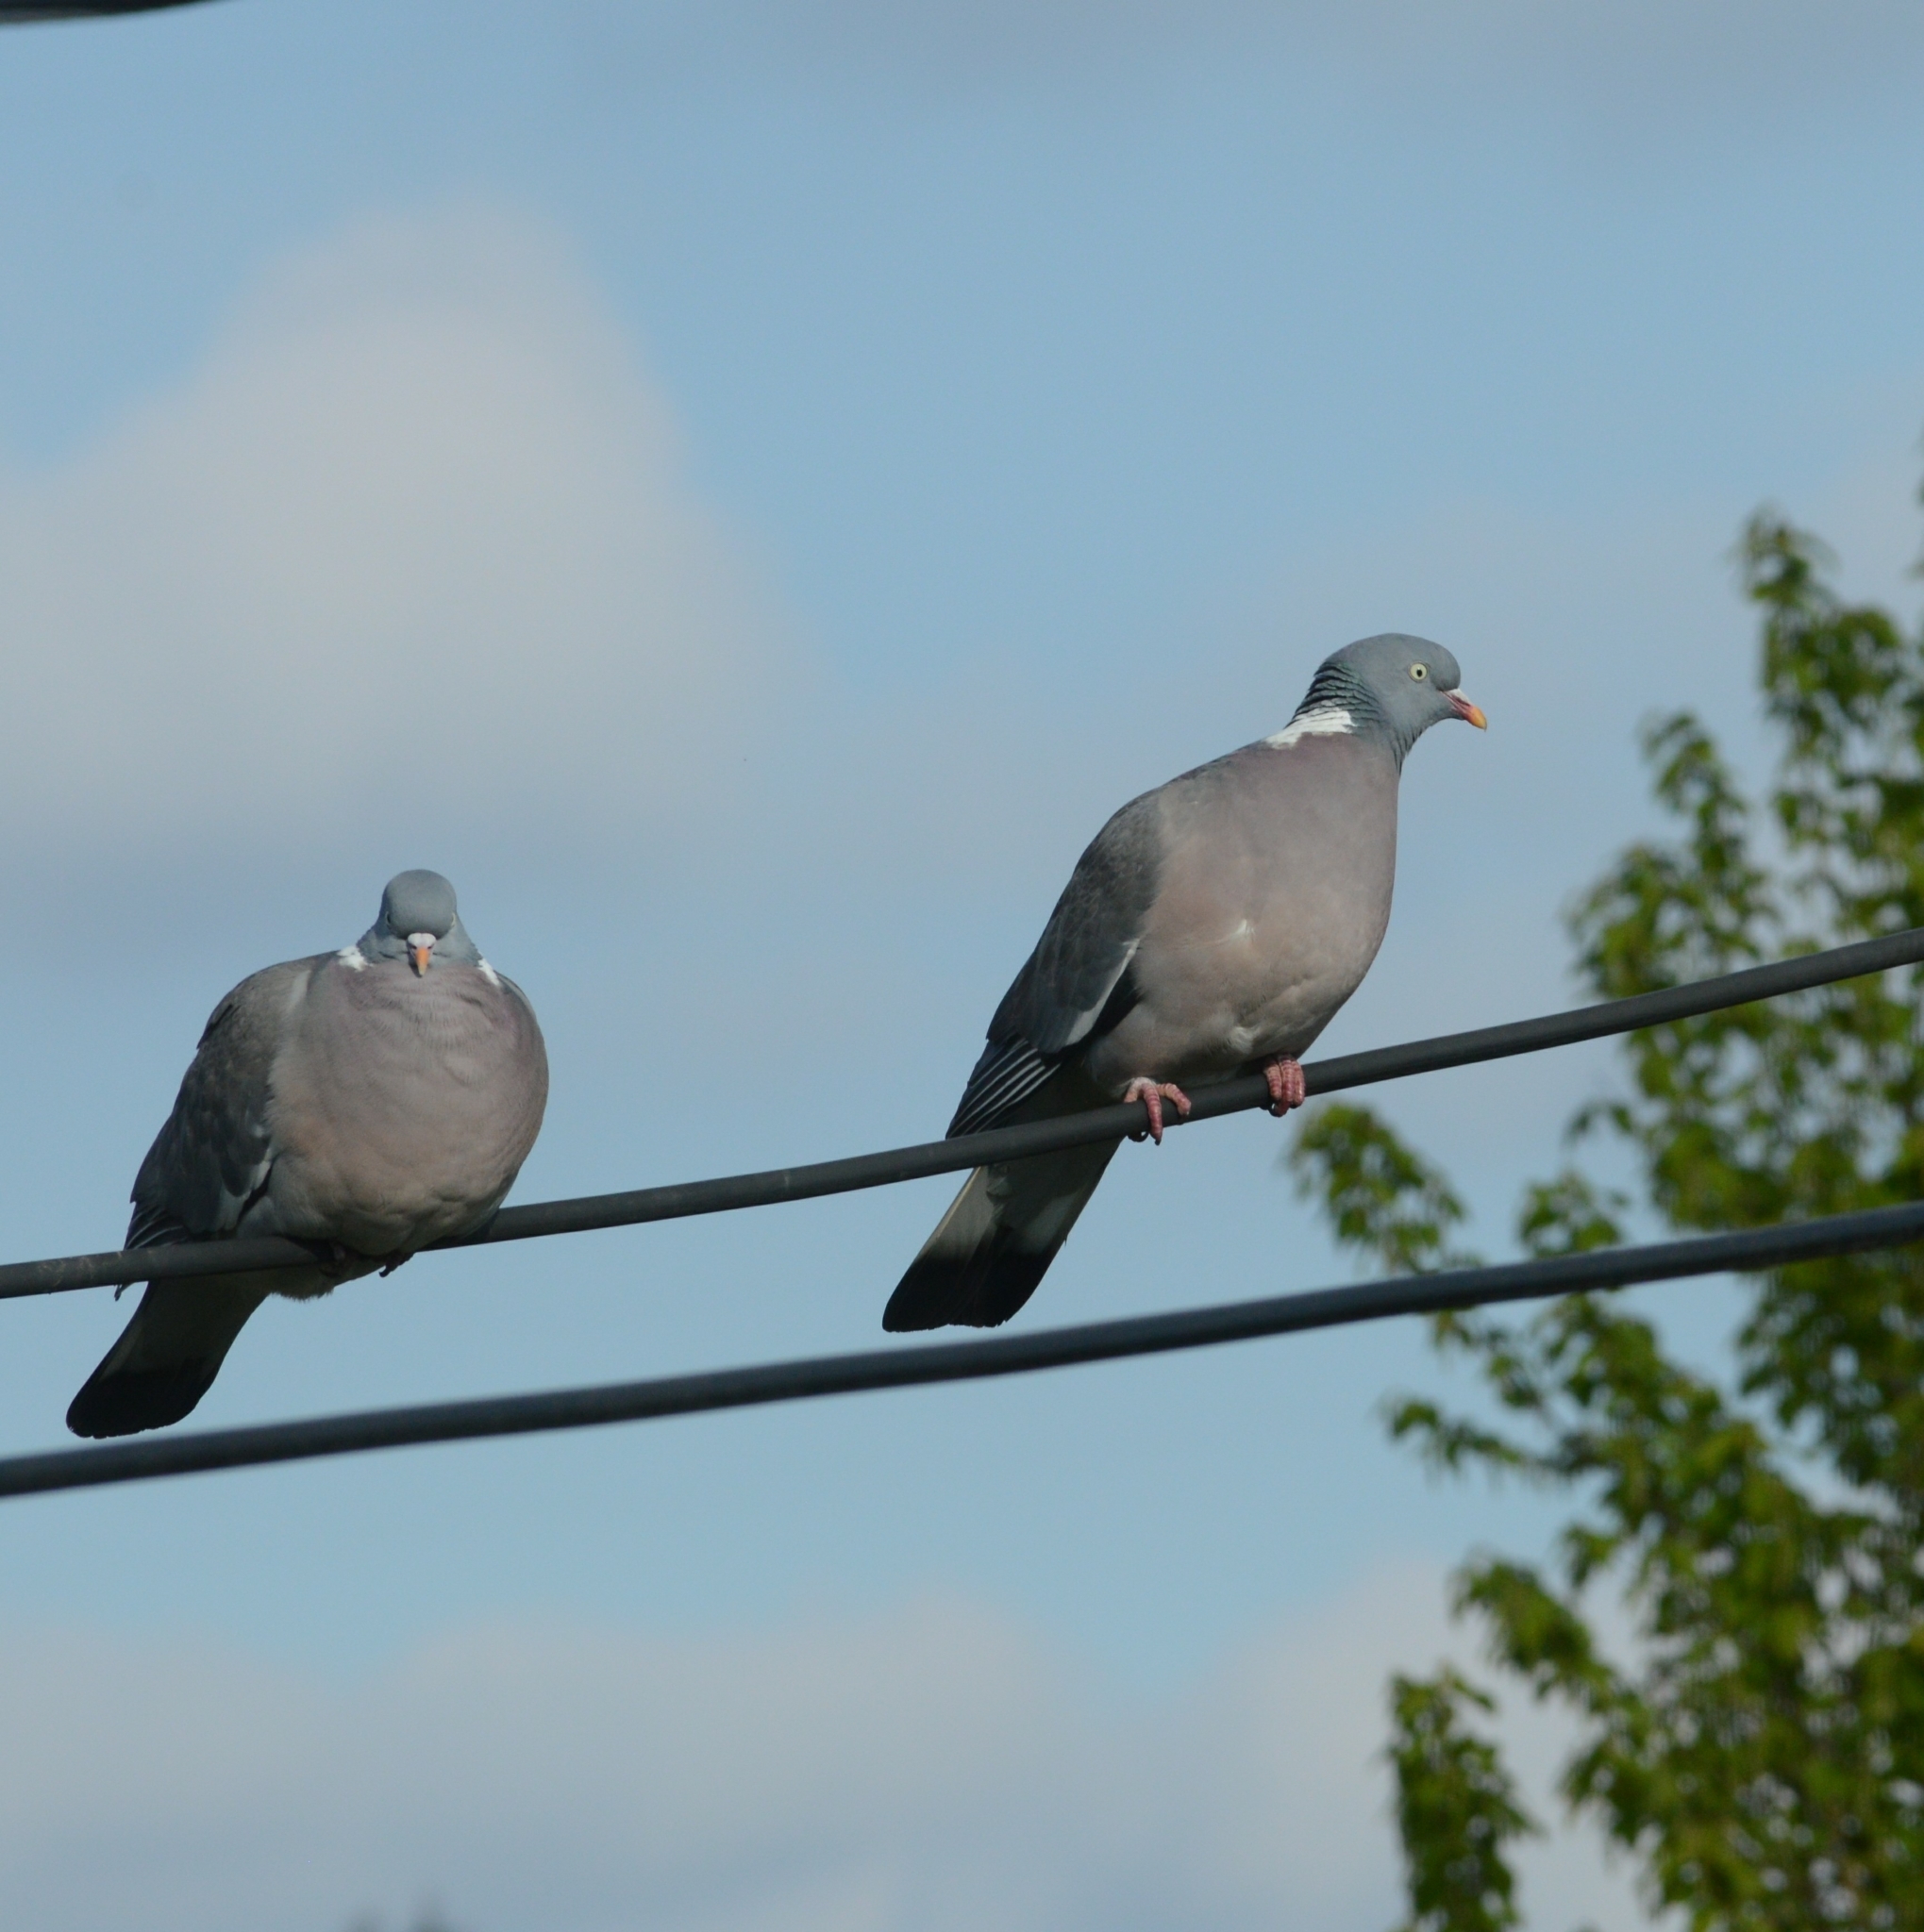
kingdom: Animalia
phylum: Chordata
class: Aves
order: Columbiformes
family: Columbidae
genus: Columba
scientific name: Columba palumbus
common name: Common wood pigeon
